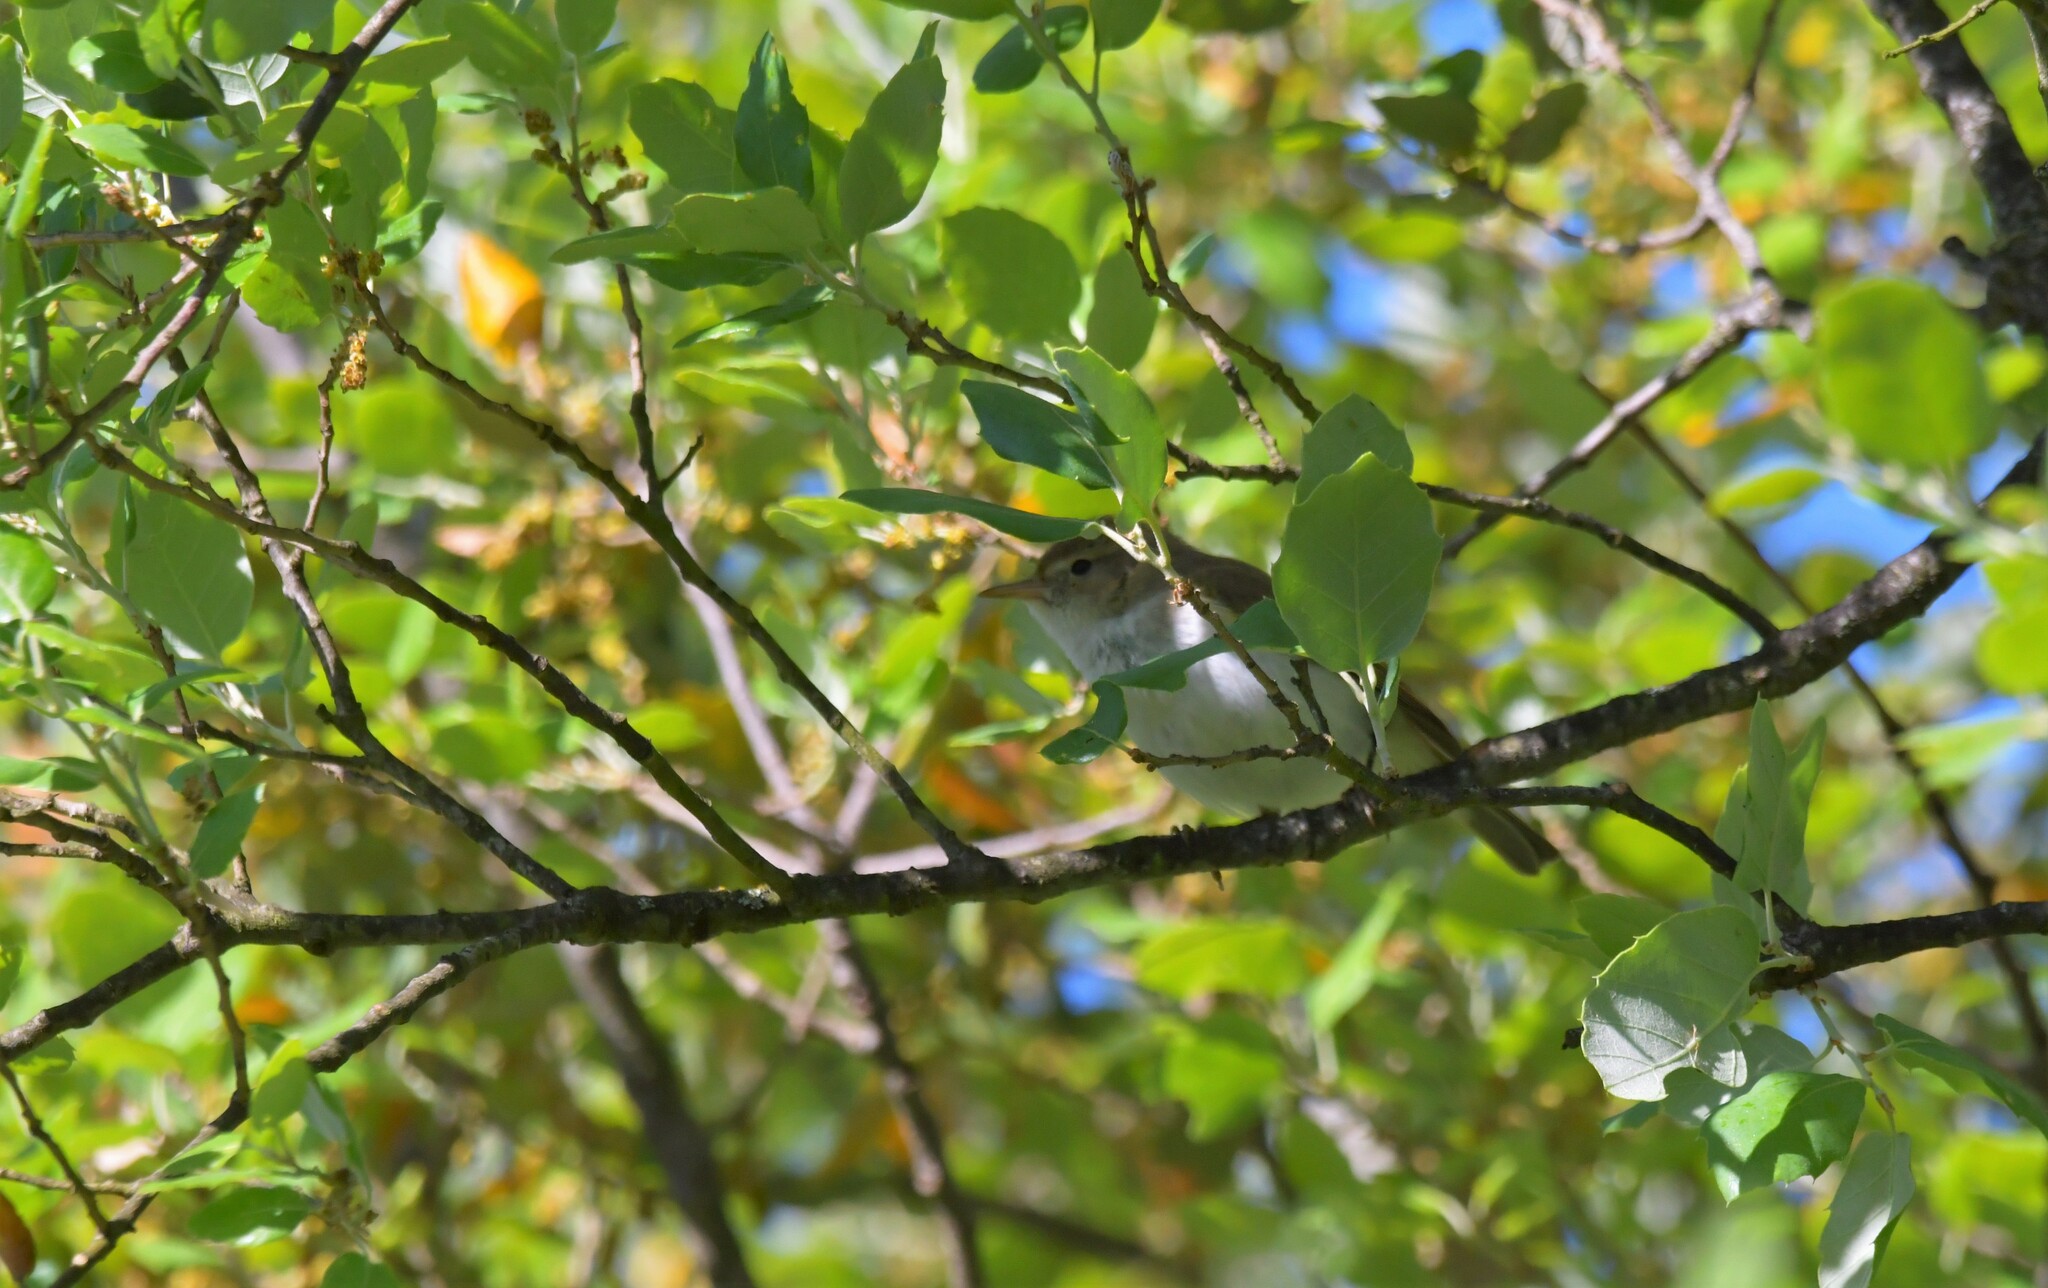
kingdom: Animalia
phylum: Chordata
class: Aves
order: Passeriformes
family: Phylloscopidae
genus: Phylloscopus
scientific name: Phylloscopus bonelli
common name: Western bonelli's warbler
